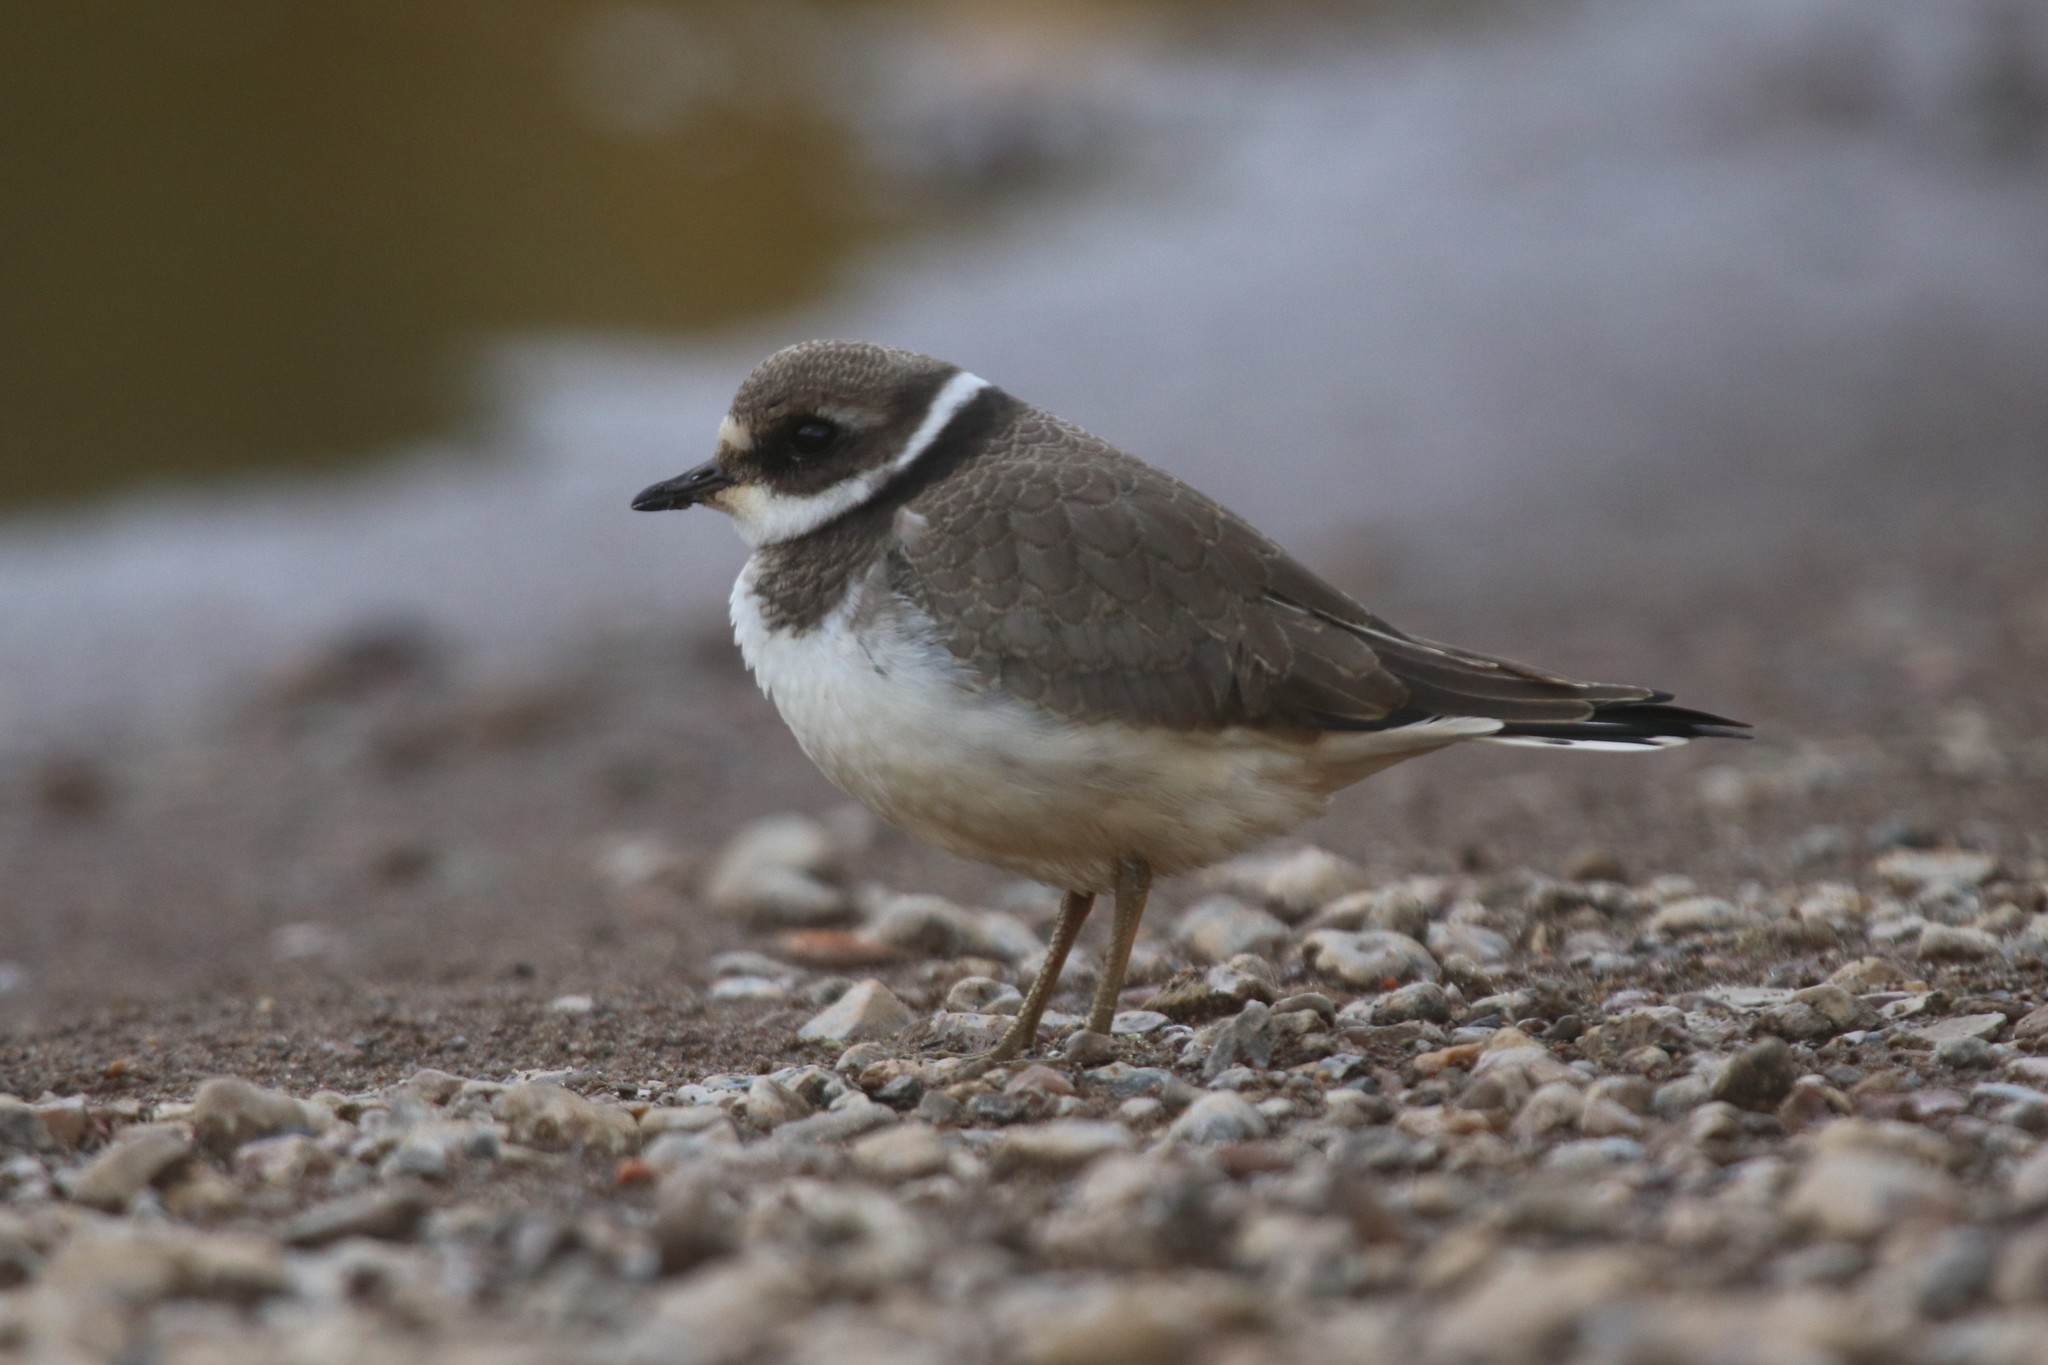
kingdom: Animalia
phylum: Chordata
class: Aves
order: Charadriiformes
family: Charadriidae
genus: Charadrius
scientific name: Charadrius hiaticula
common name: Common ringed plover
